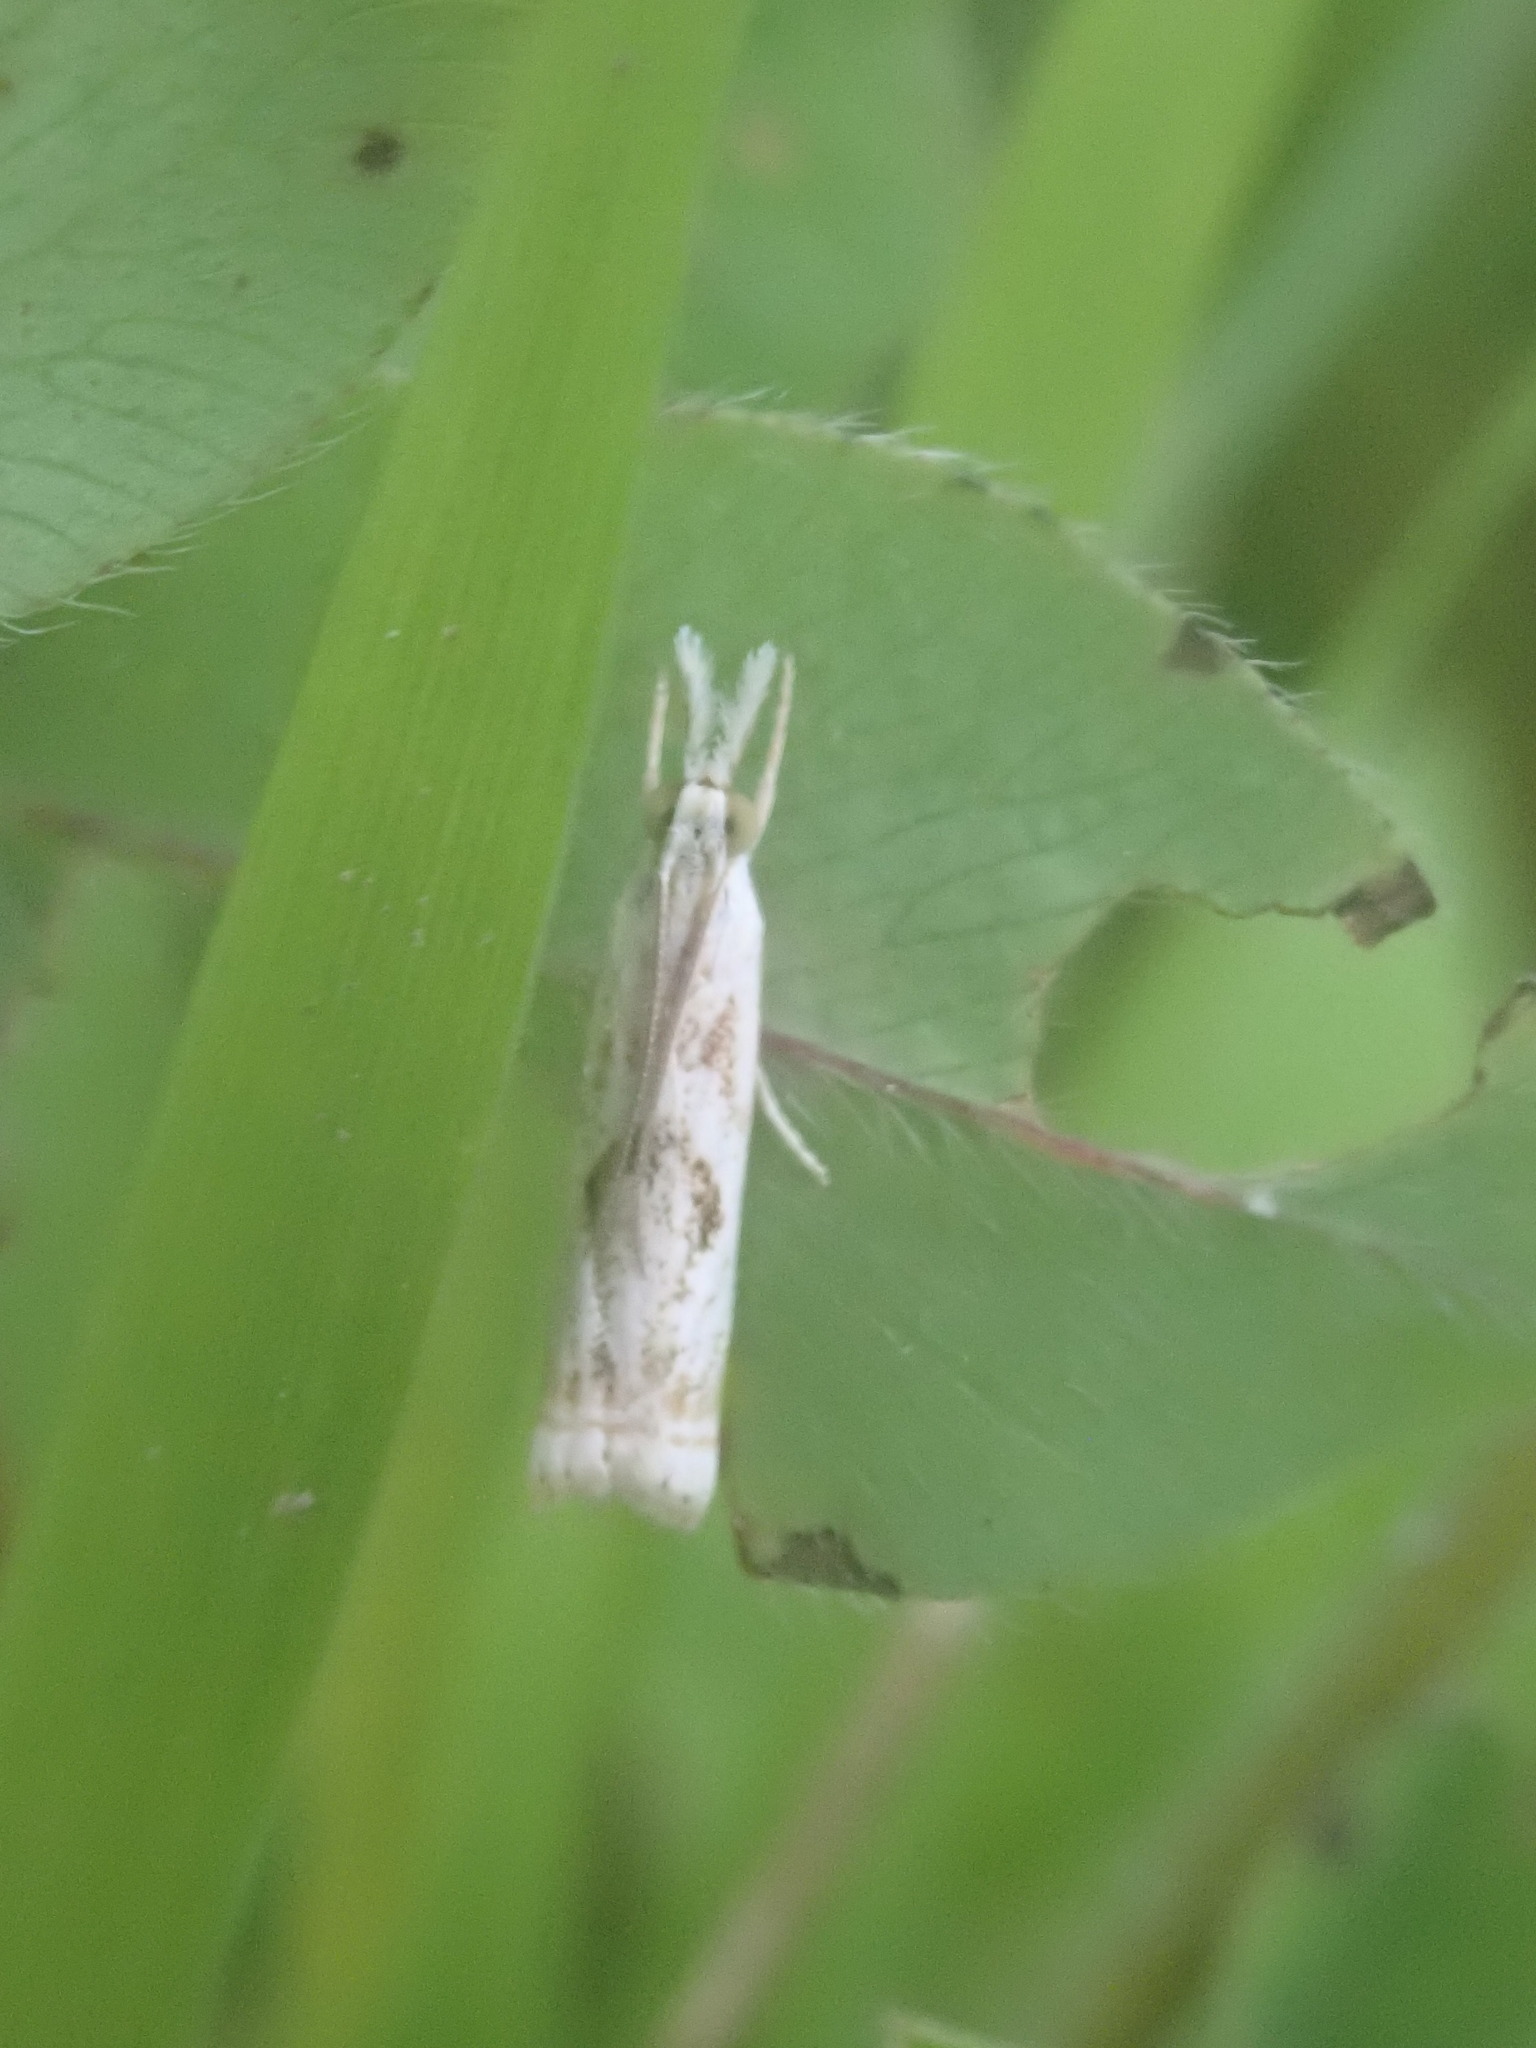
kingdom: Animalia
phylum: Arthropoda
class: Insecta
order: Lepidoptera
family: Crambidae
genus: Microcrambus
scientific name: Microcrambus elegans
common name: Elegant grass-veneer
